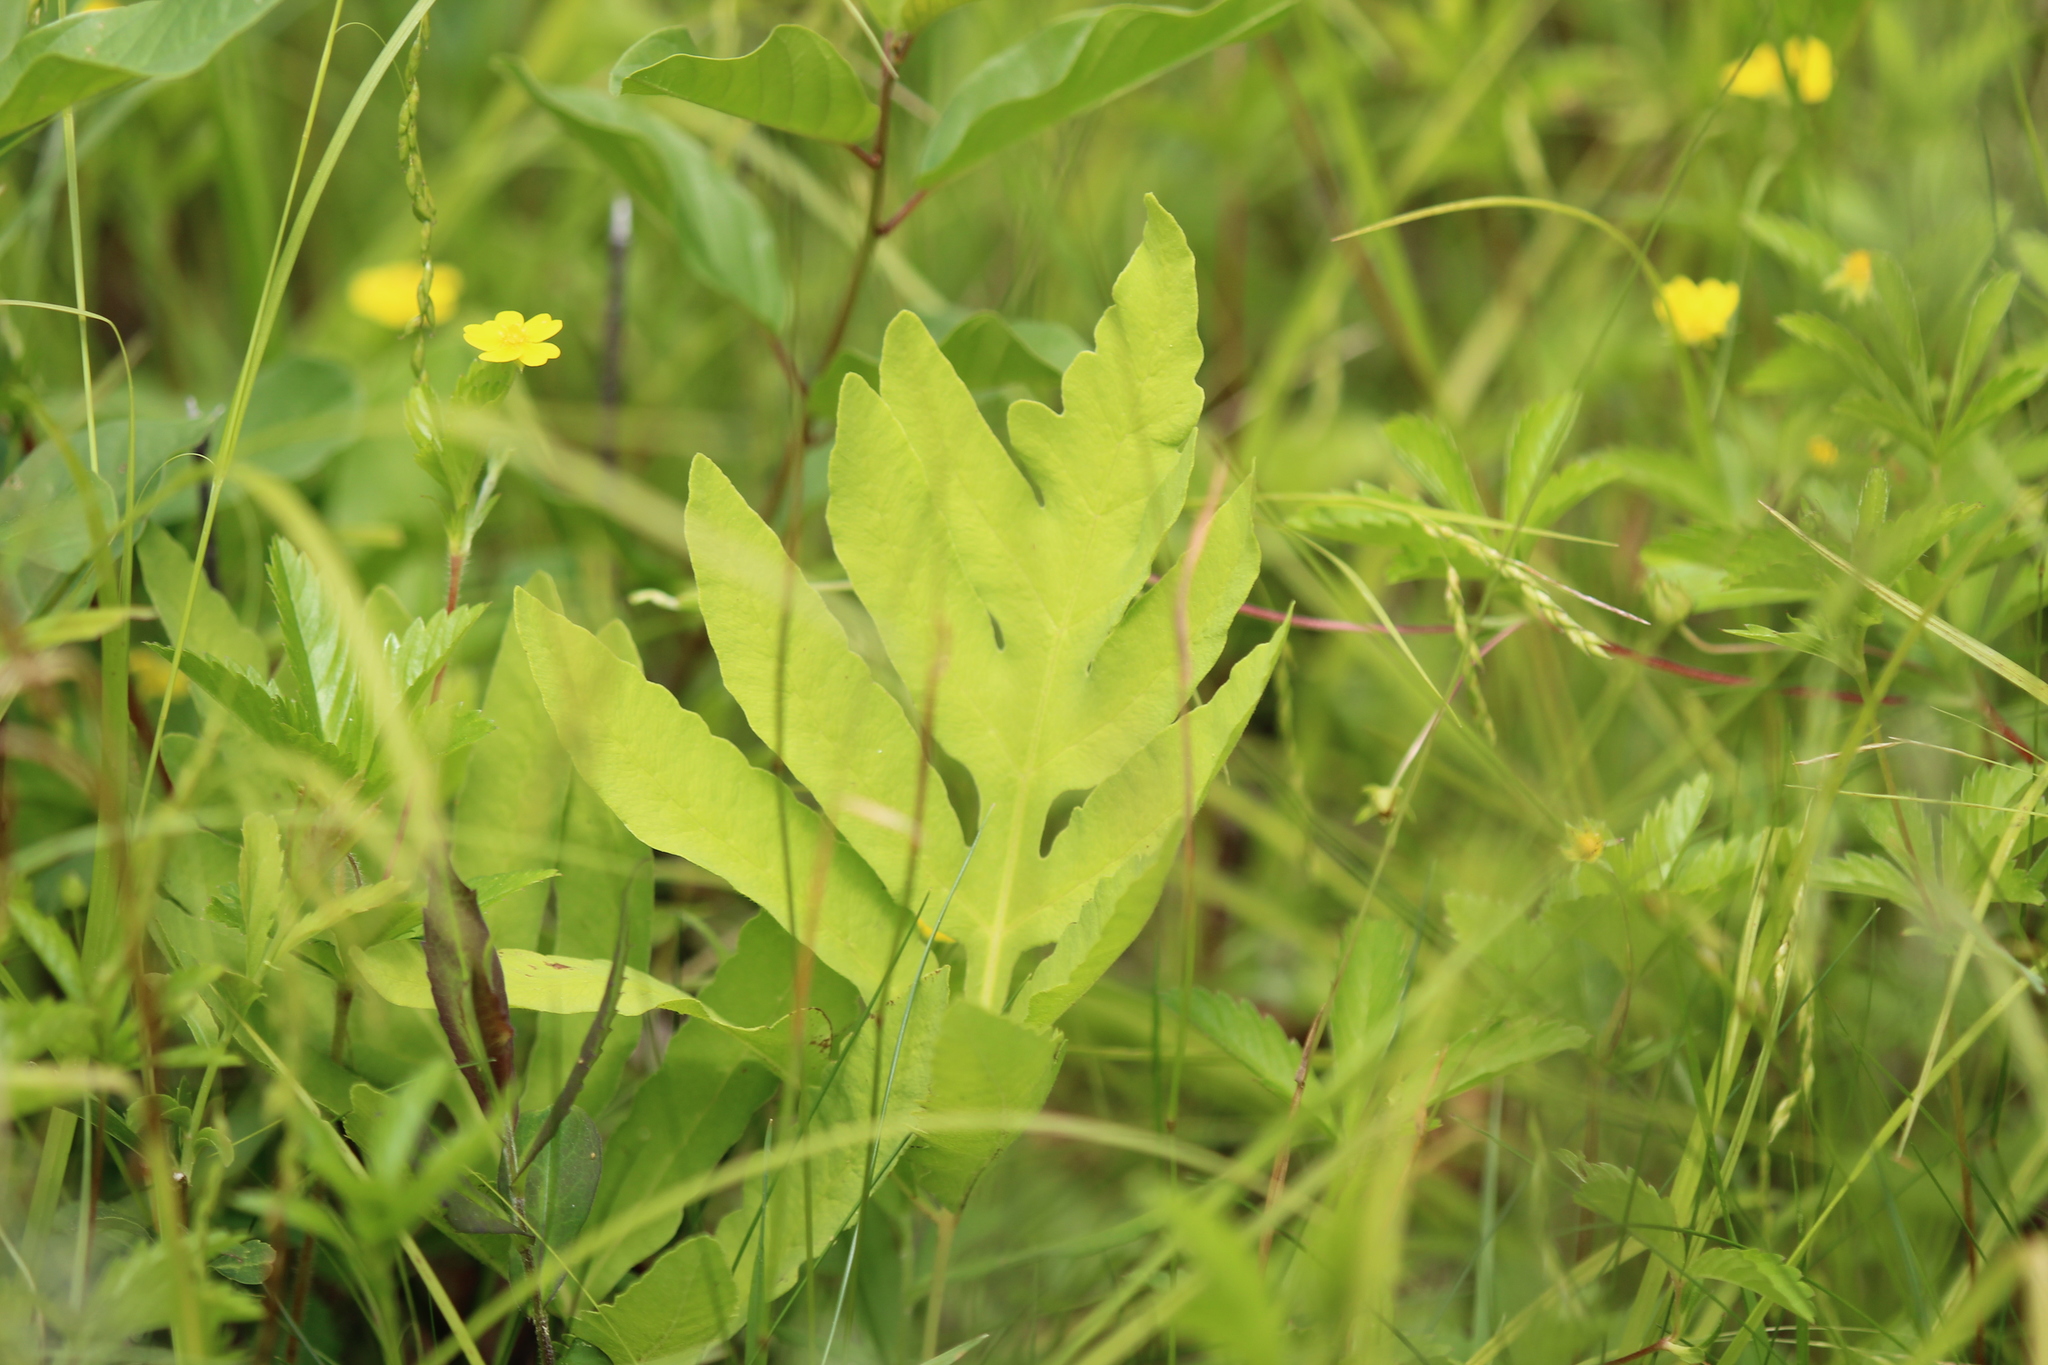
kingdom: Plantae
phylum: Tracheophyta
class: Polypodiopsida
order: Polypodiales
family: Onocleaceae
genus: Onoclea
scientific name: Onoclea sensibilis
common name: Sensitive fern
